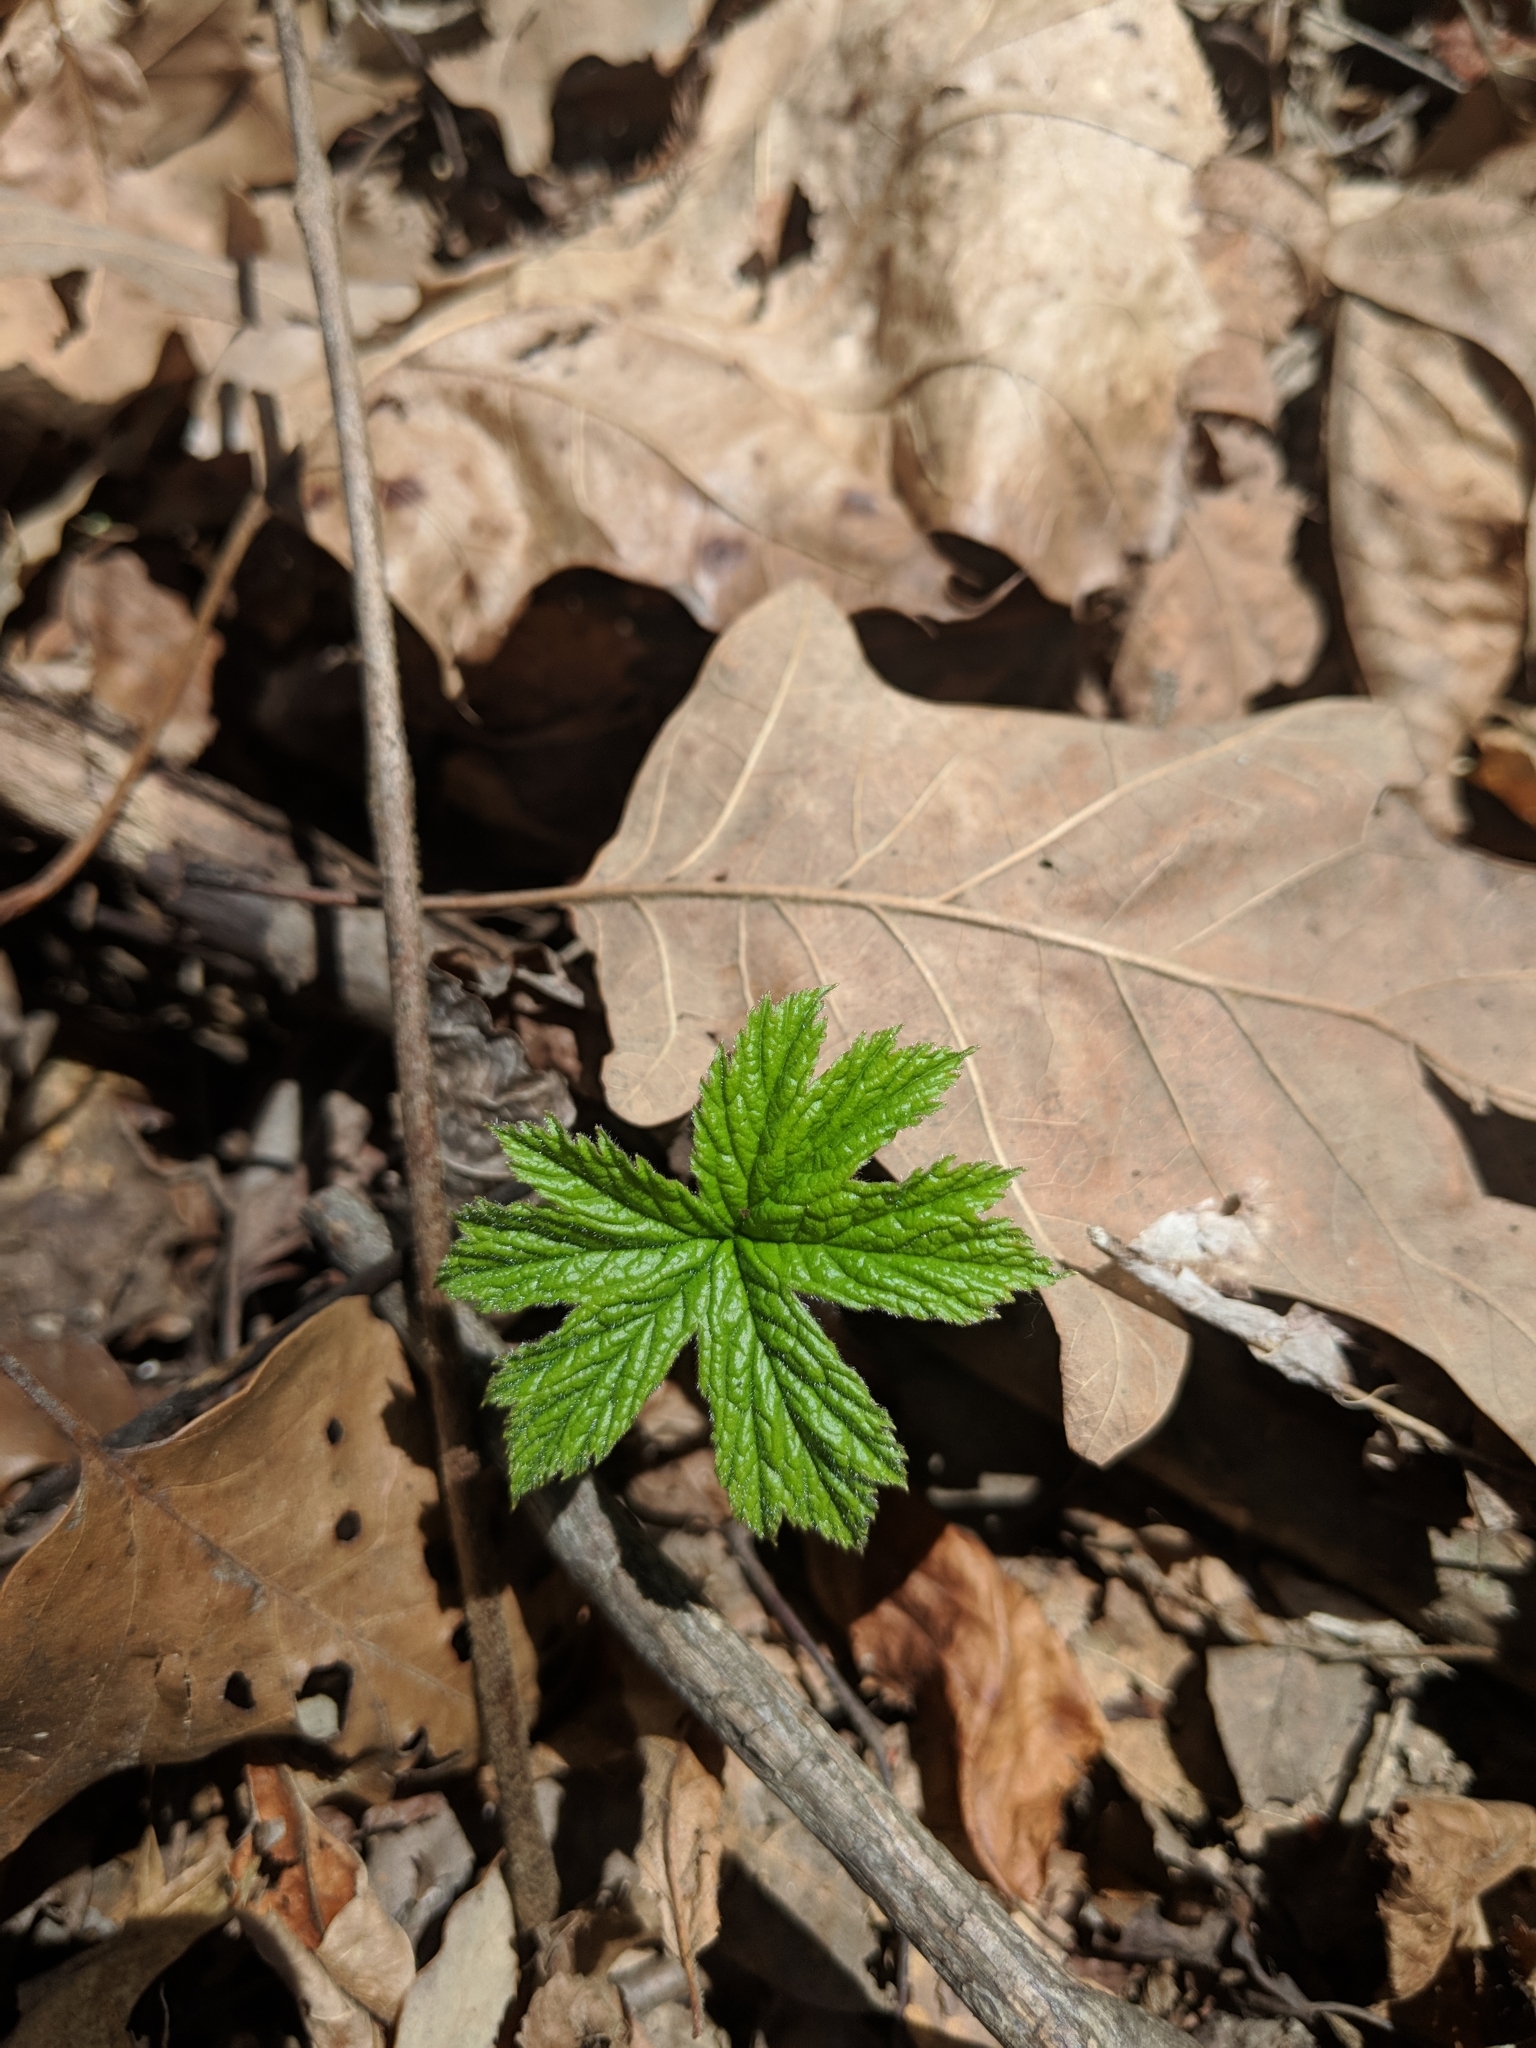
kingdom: Plantae
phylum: Tracheophyta
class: Magnoliopsida
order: Ranunculales
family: Ranunculaceae
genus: Hydrastis
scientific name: Hydrastis canadensis
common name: Goldenseal
